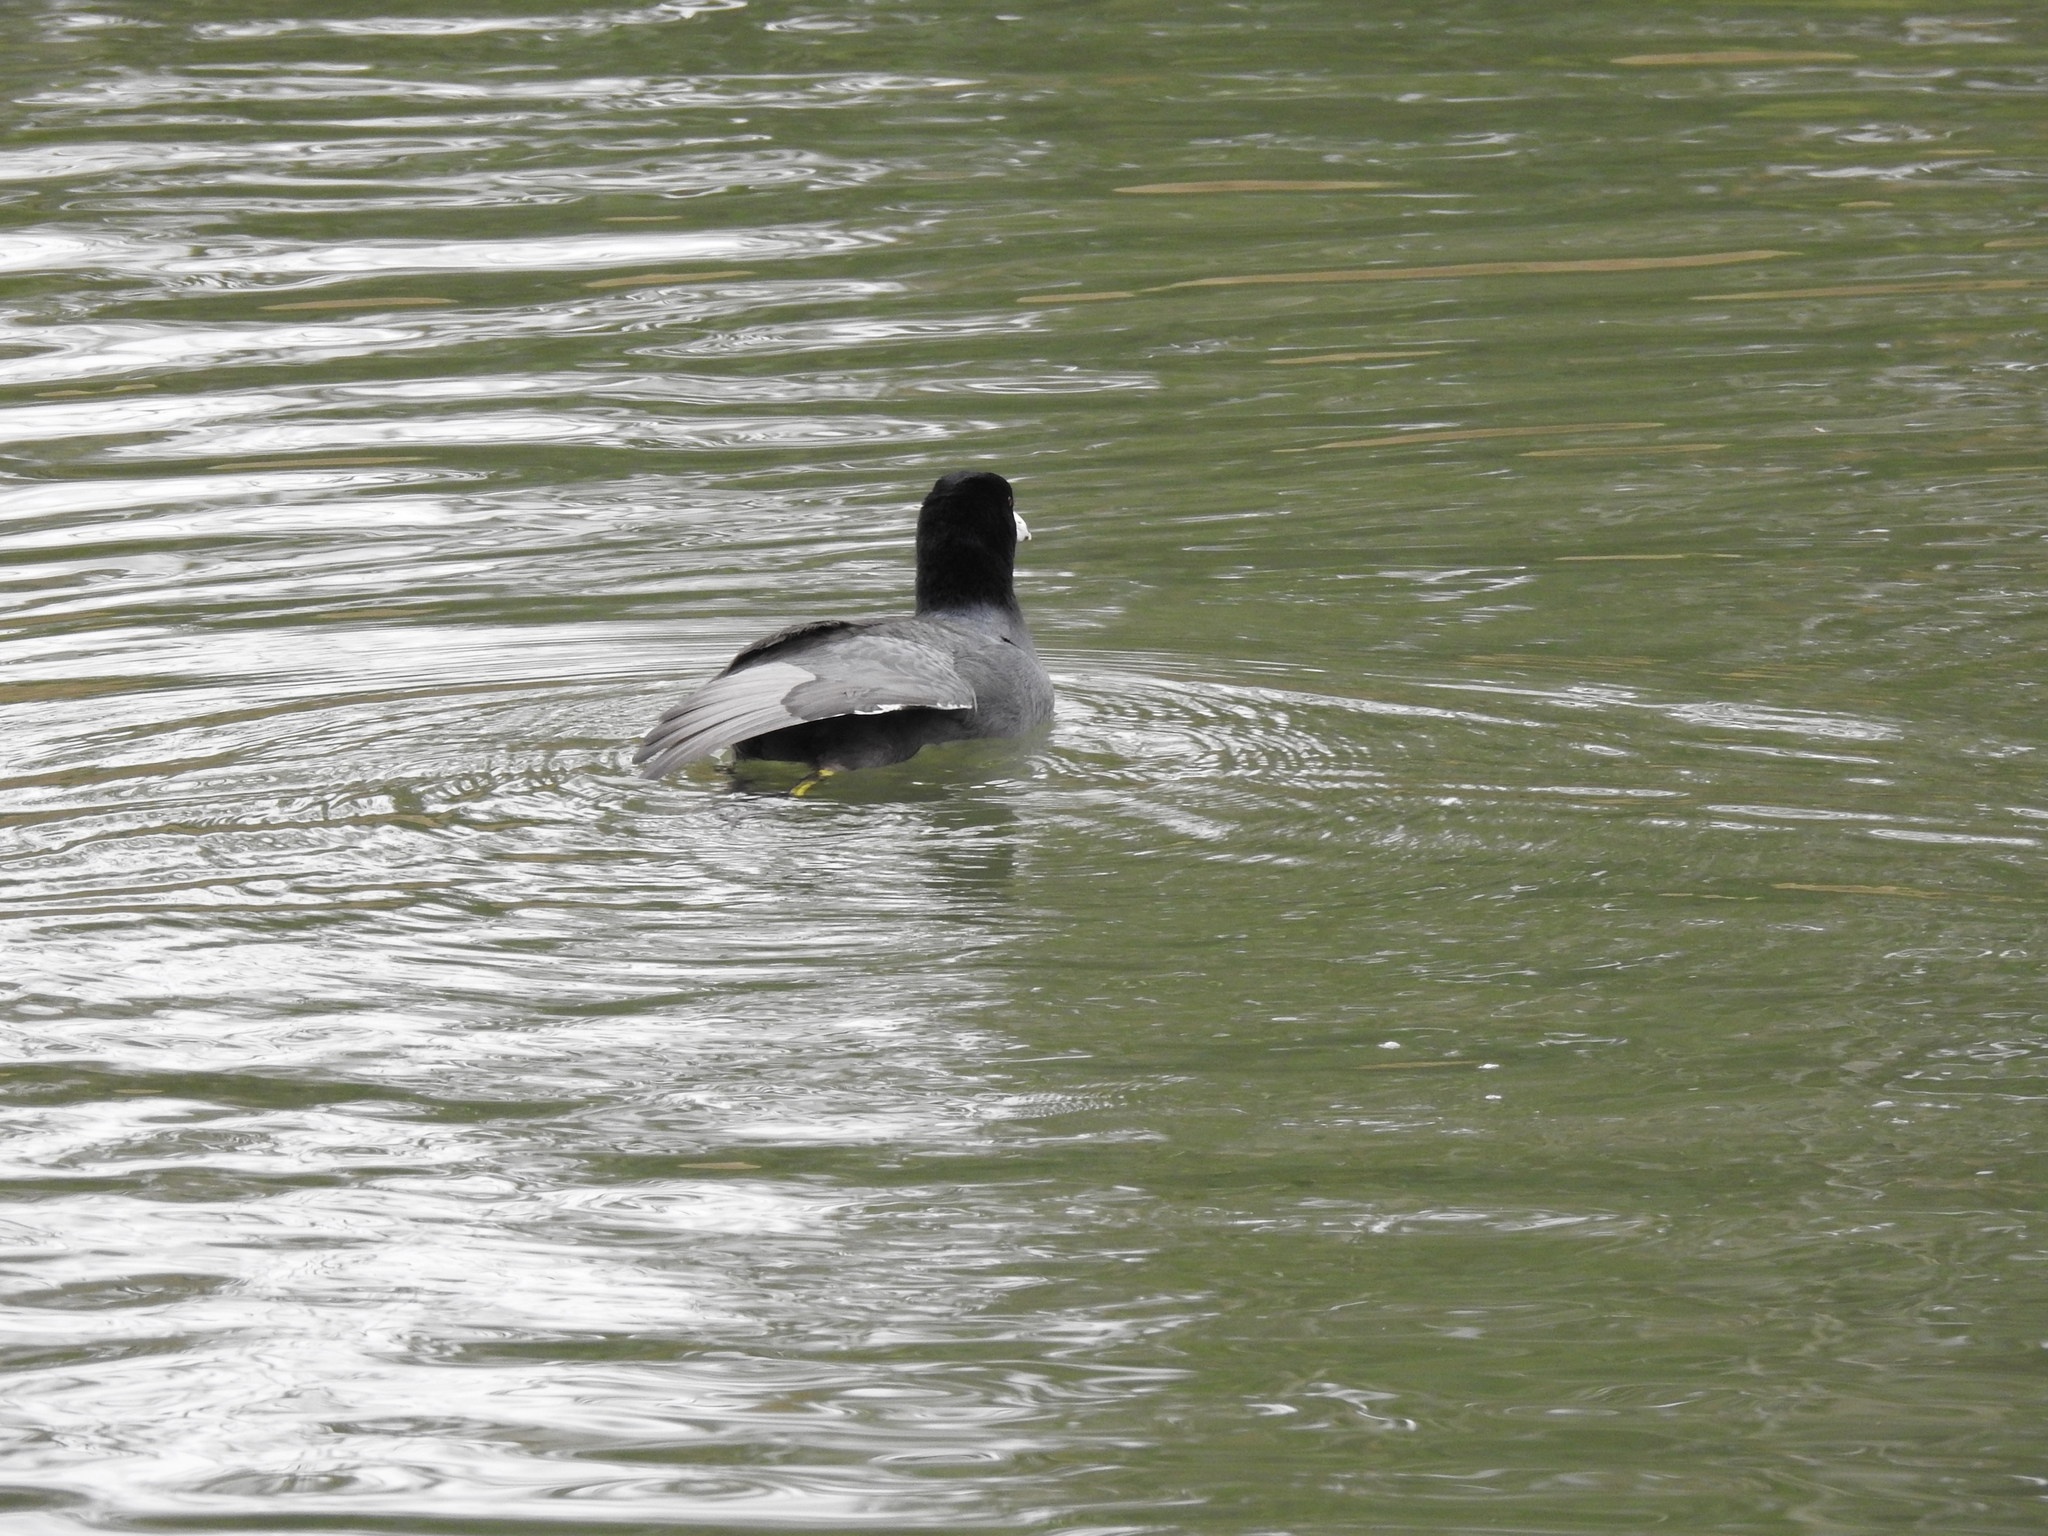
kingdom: Animalia
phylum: Chordata
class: Aves
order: Gruiformes
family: Rallidae
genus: Fulica
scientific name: Fulica americana
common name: American coot
